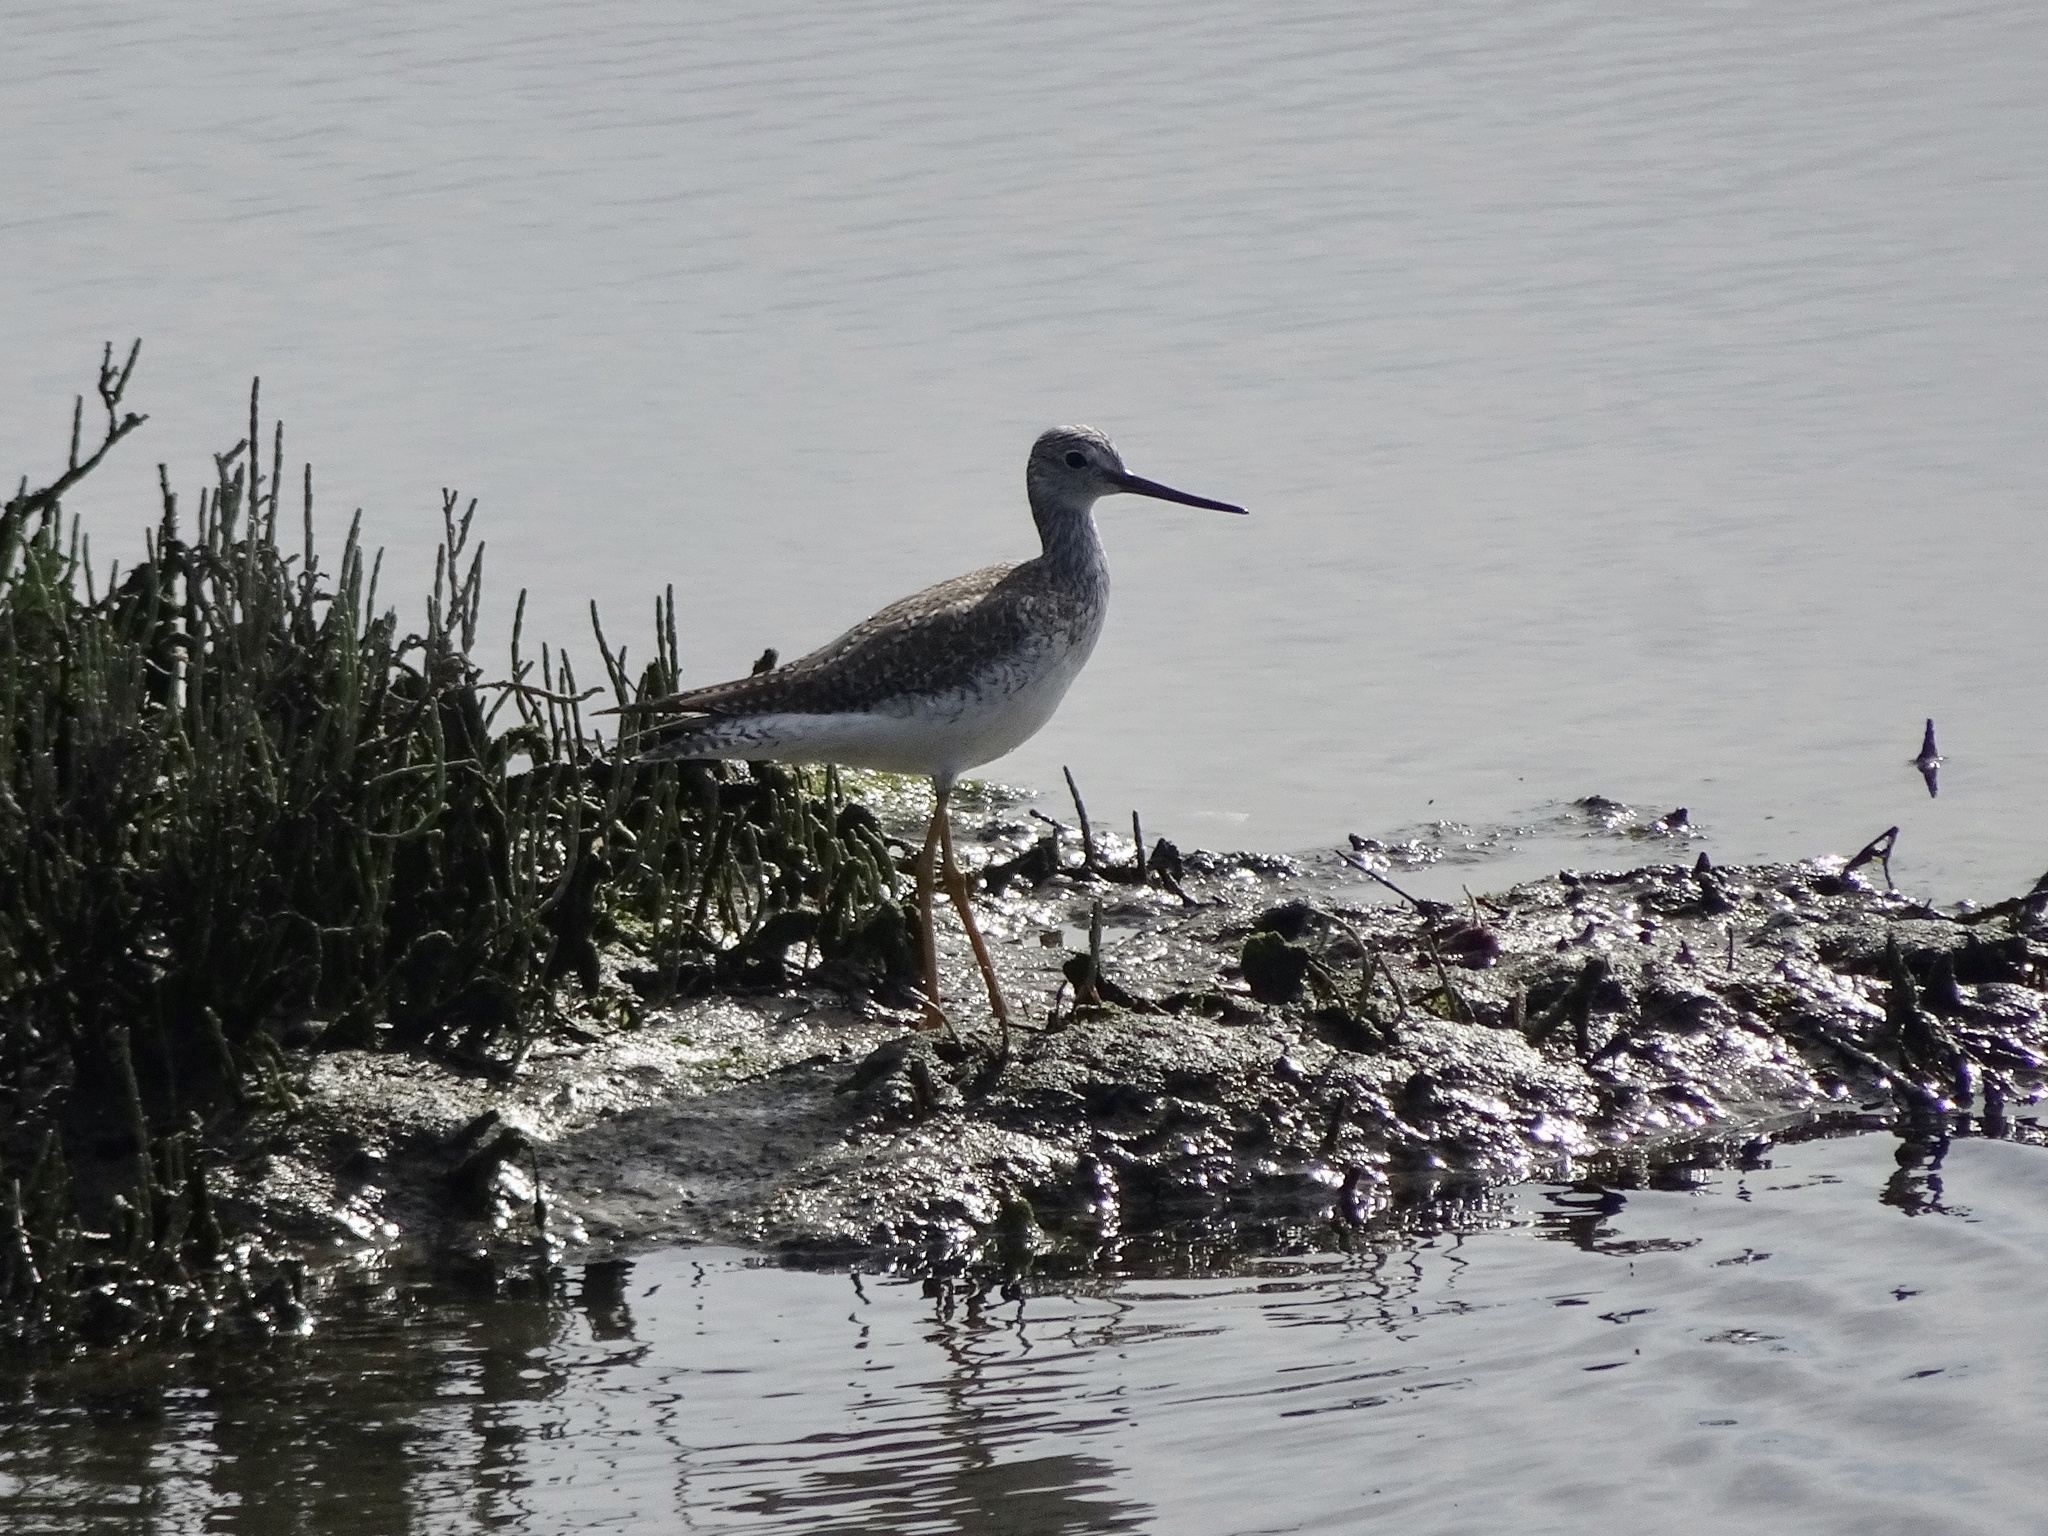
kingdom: Animalia
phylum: Chordata
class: Aves
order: Charadriiformes
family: Scolopacidae
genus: Tringa
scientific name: Tringa melanoleuca
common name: Greater yellowlegs
